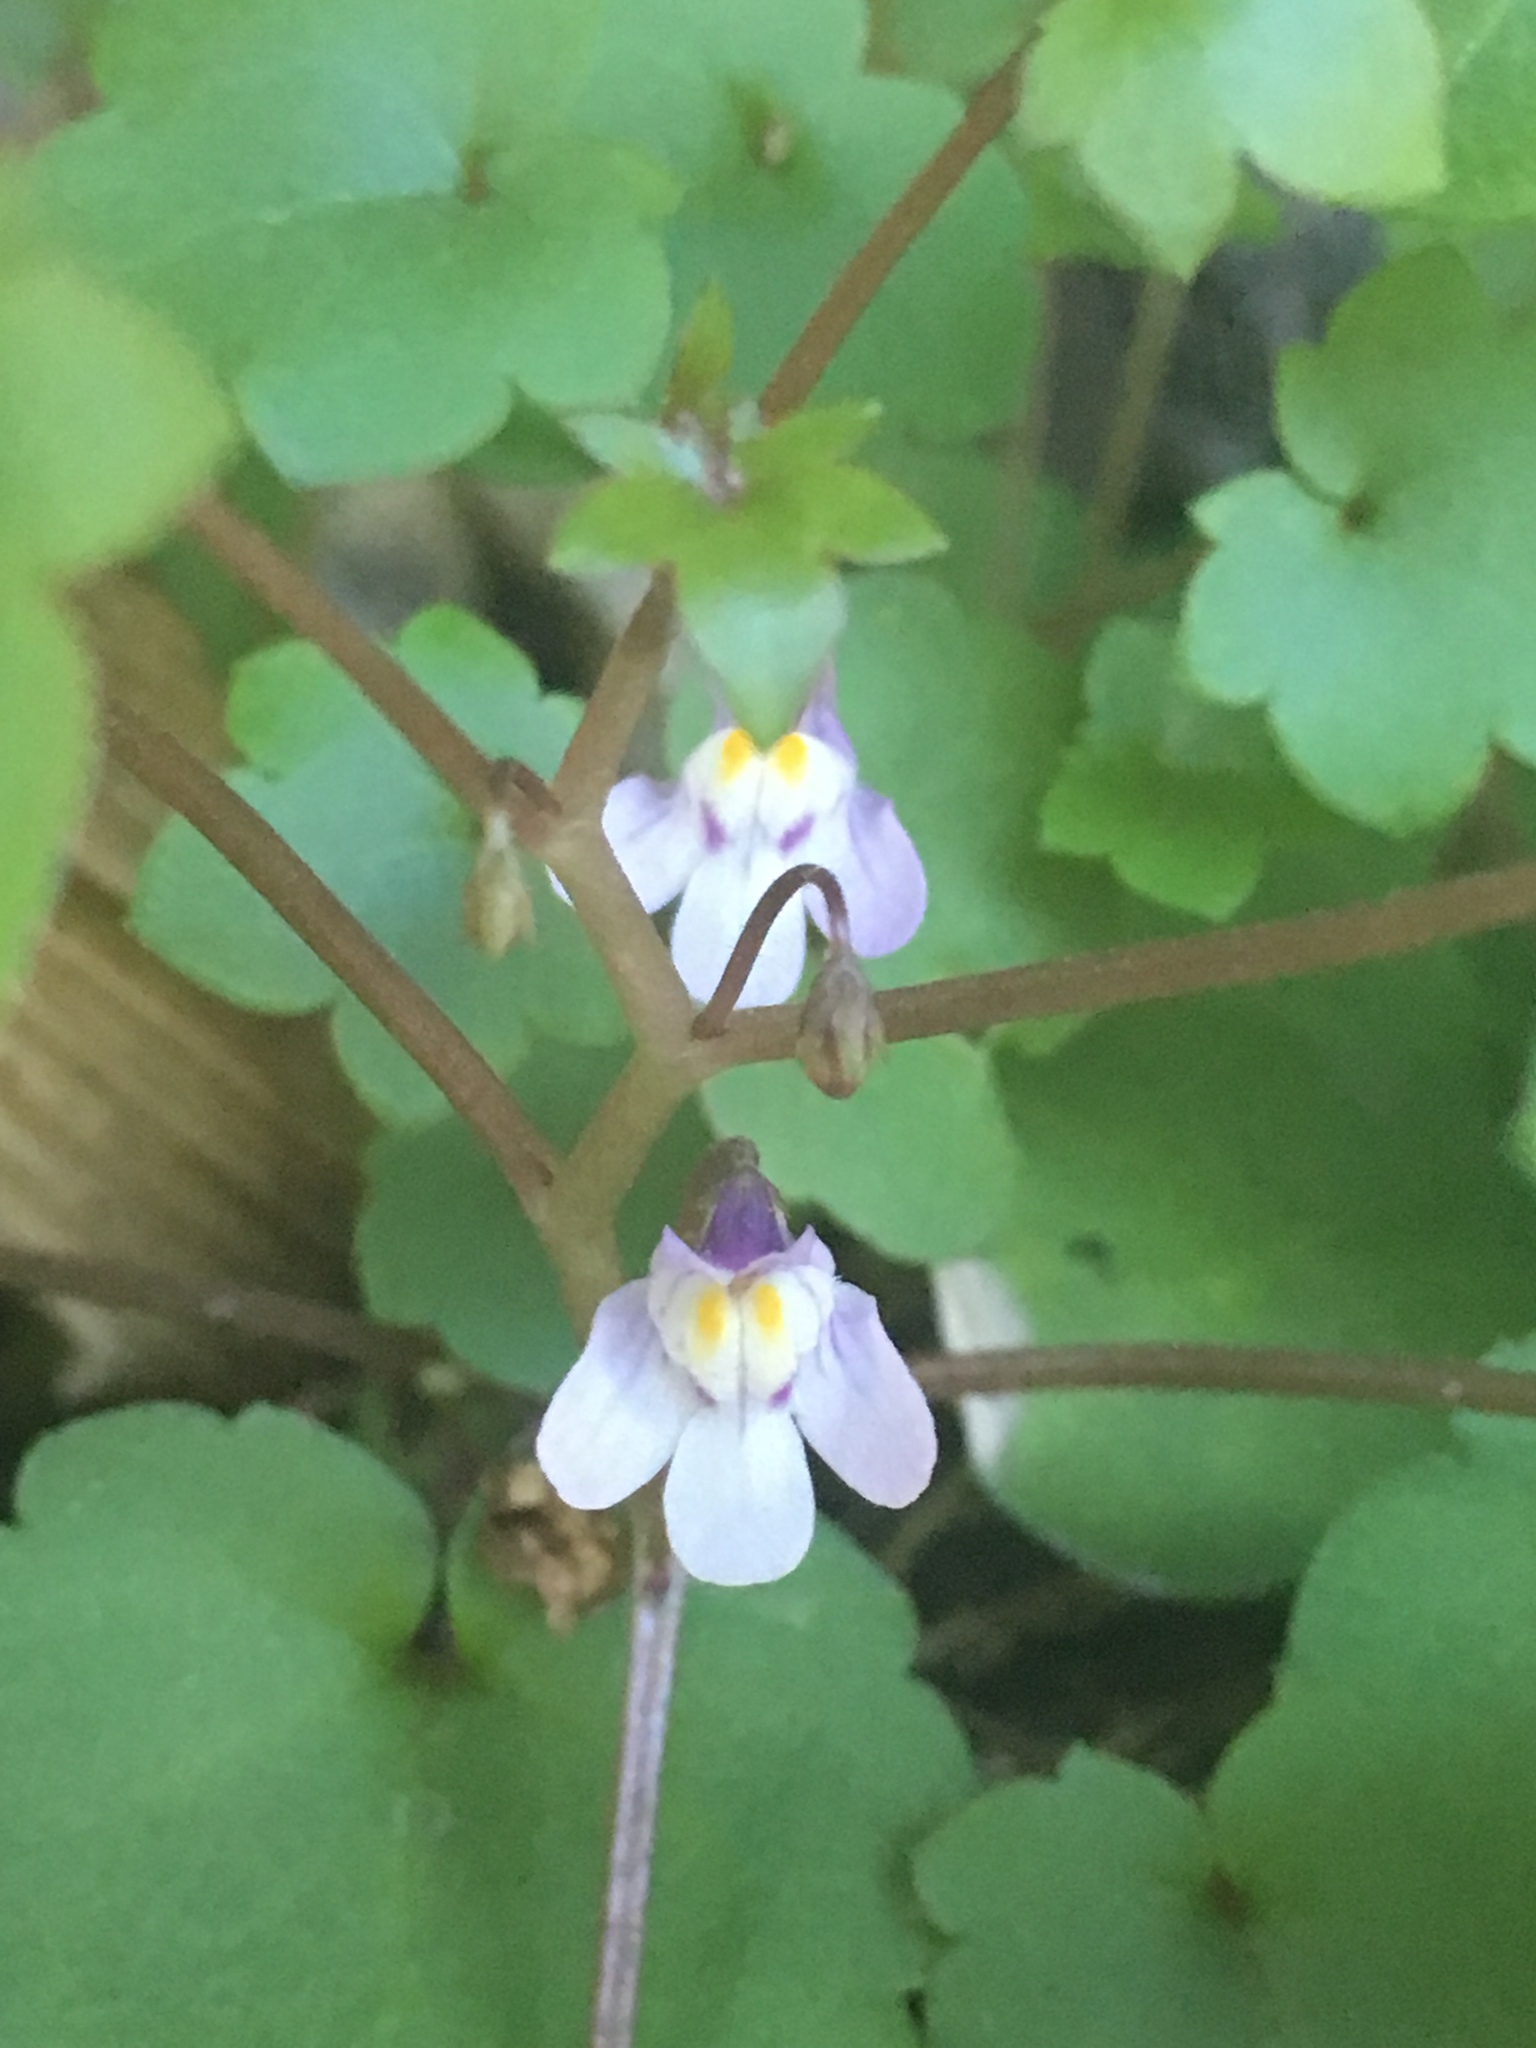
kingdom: Plantae
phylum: Tracheophyta
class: Magnoliopsida
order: Lamiales
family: Plantaginaceae
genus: Cymbalaria
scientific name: Cymbalaria muralis
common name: Ivy-leaved toadflax
